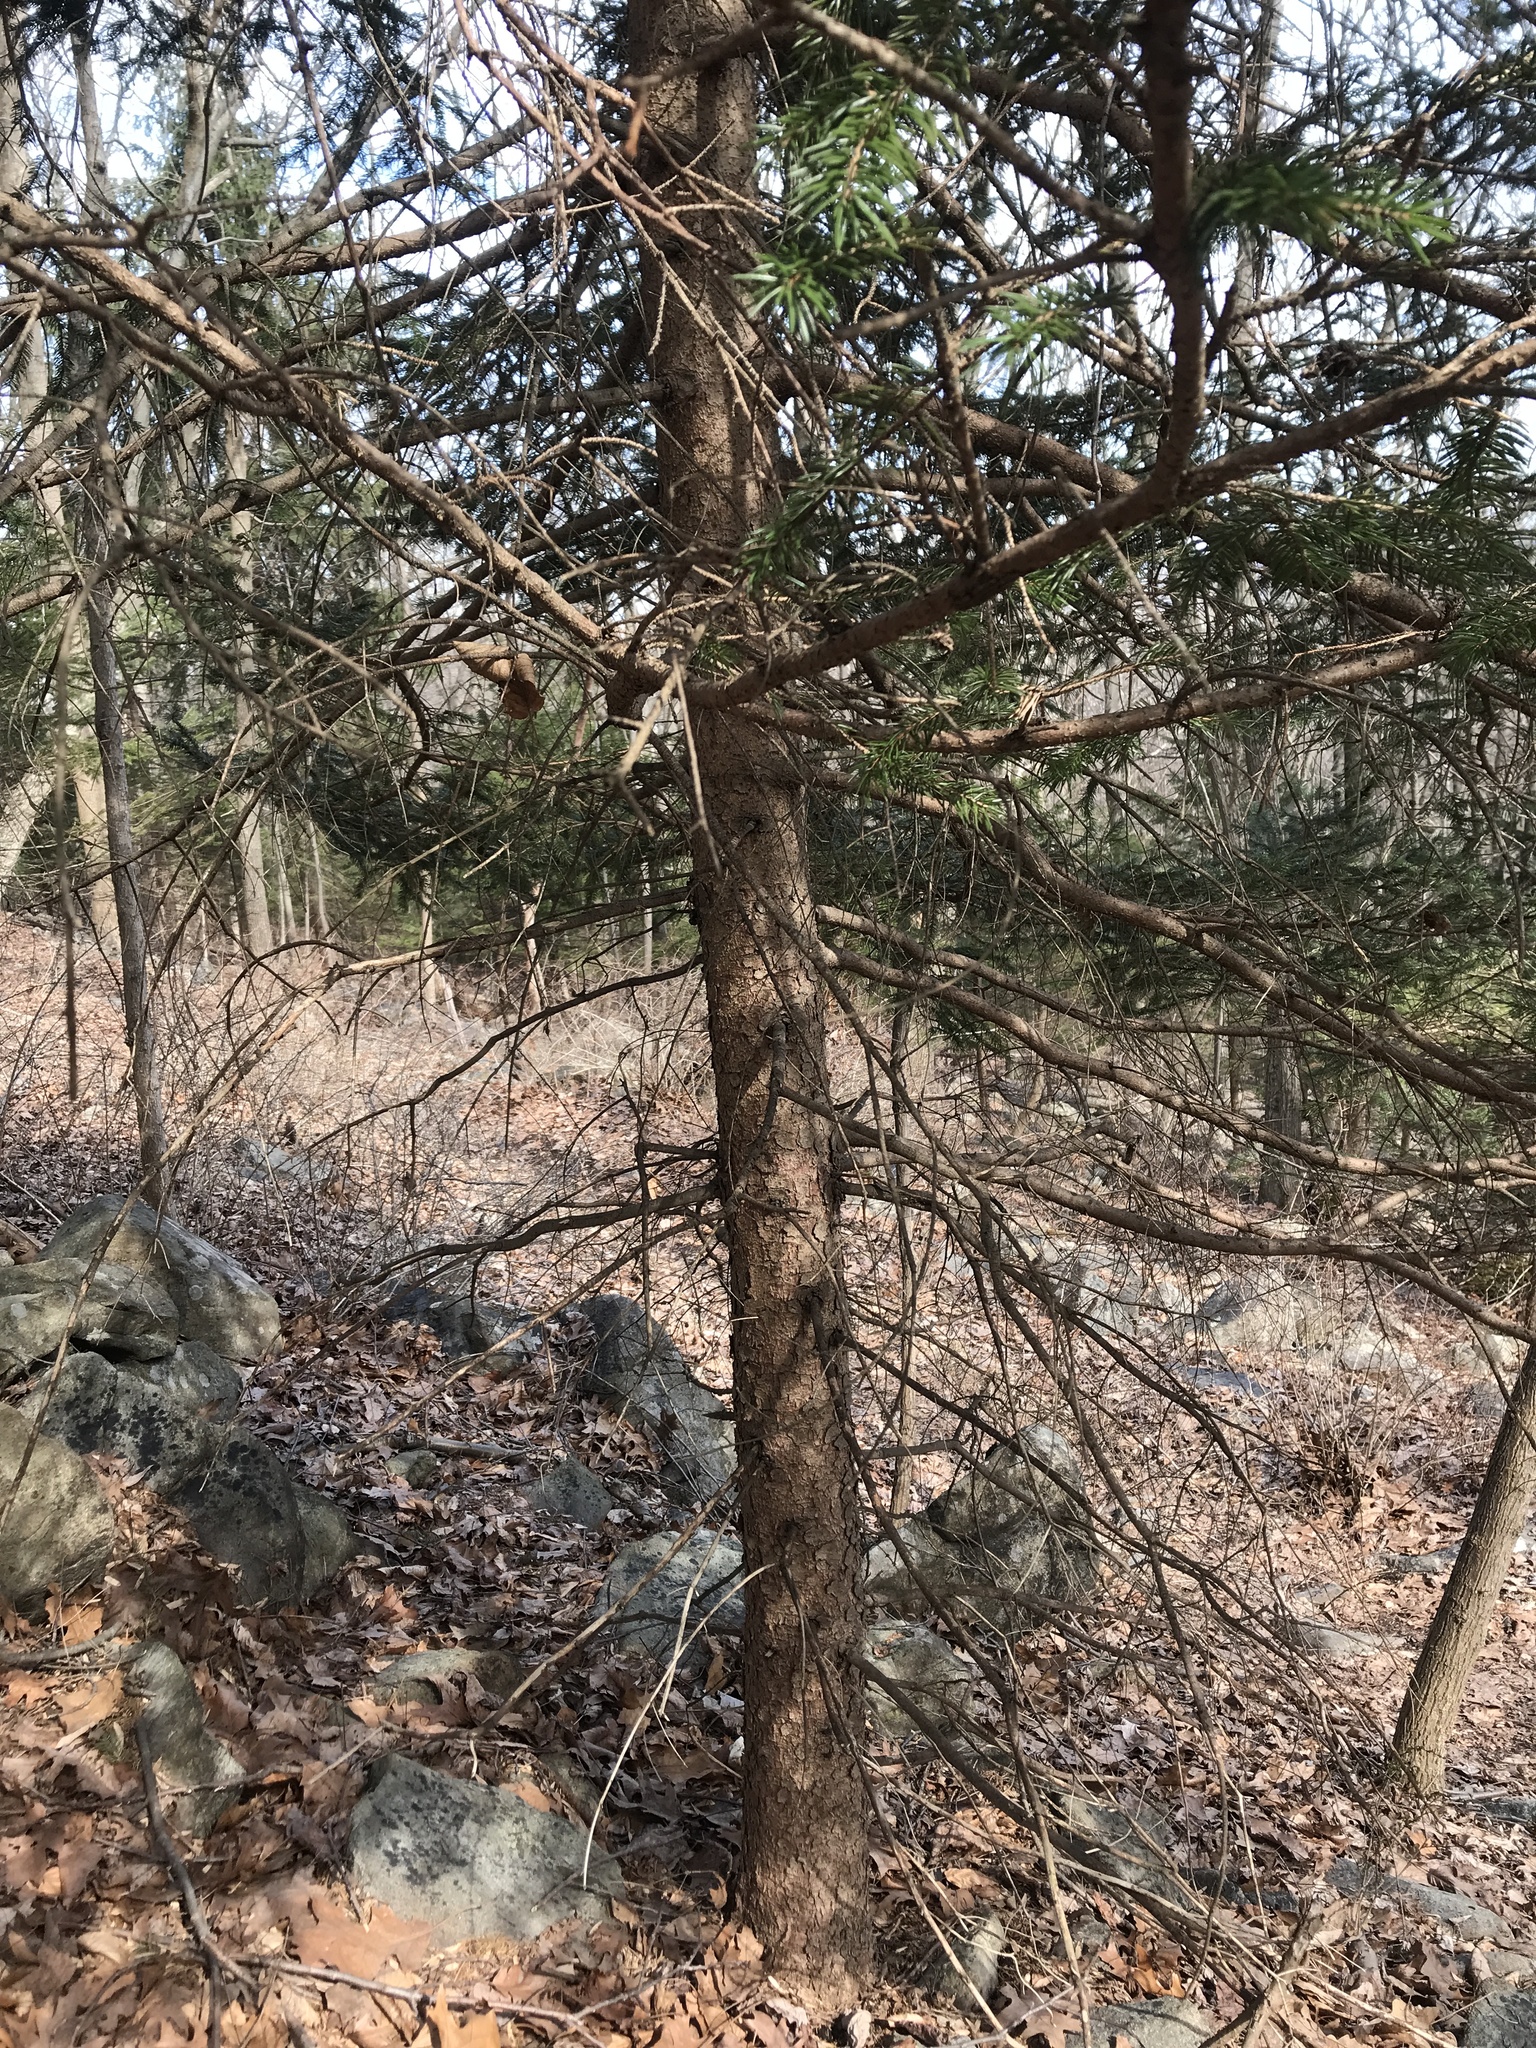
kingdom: Plantae
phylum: Tracheophyta
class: Pinopsida
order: Pinales
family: Pinaceae
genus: Picea
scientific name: Picea abies
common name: Norway spruce
